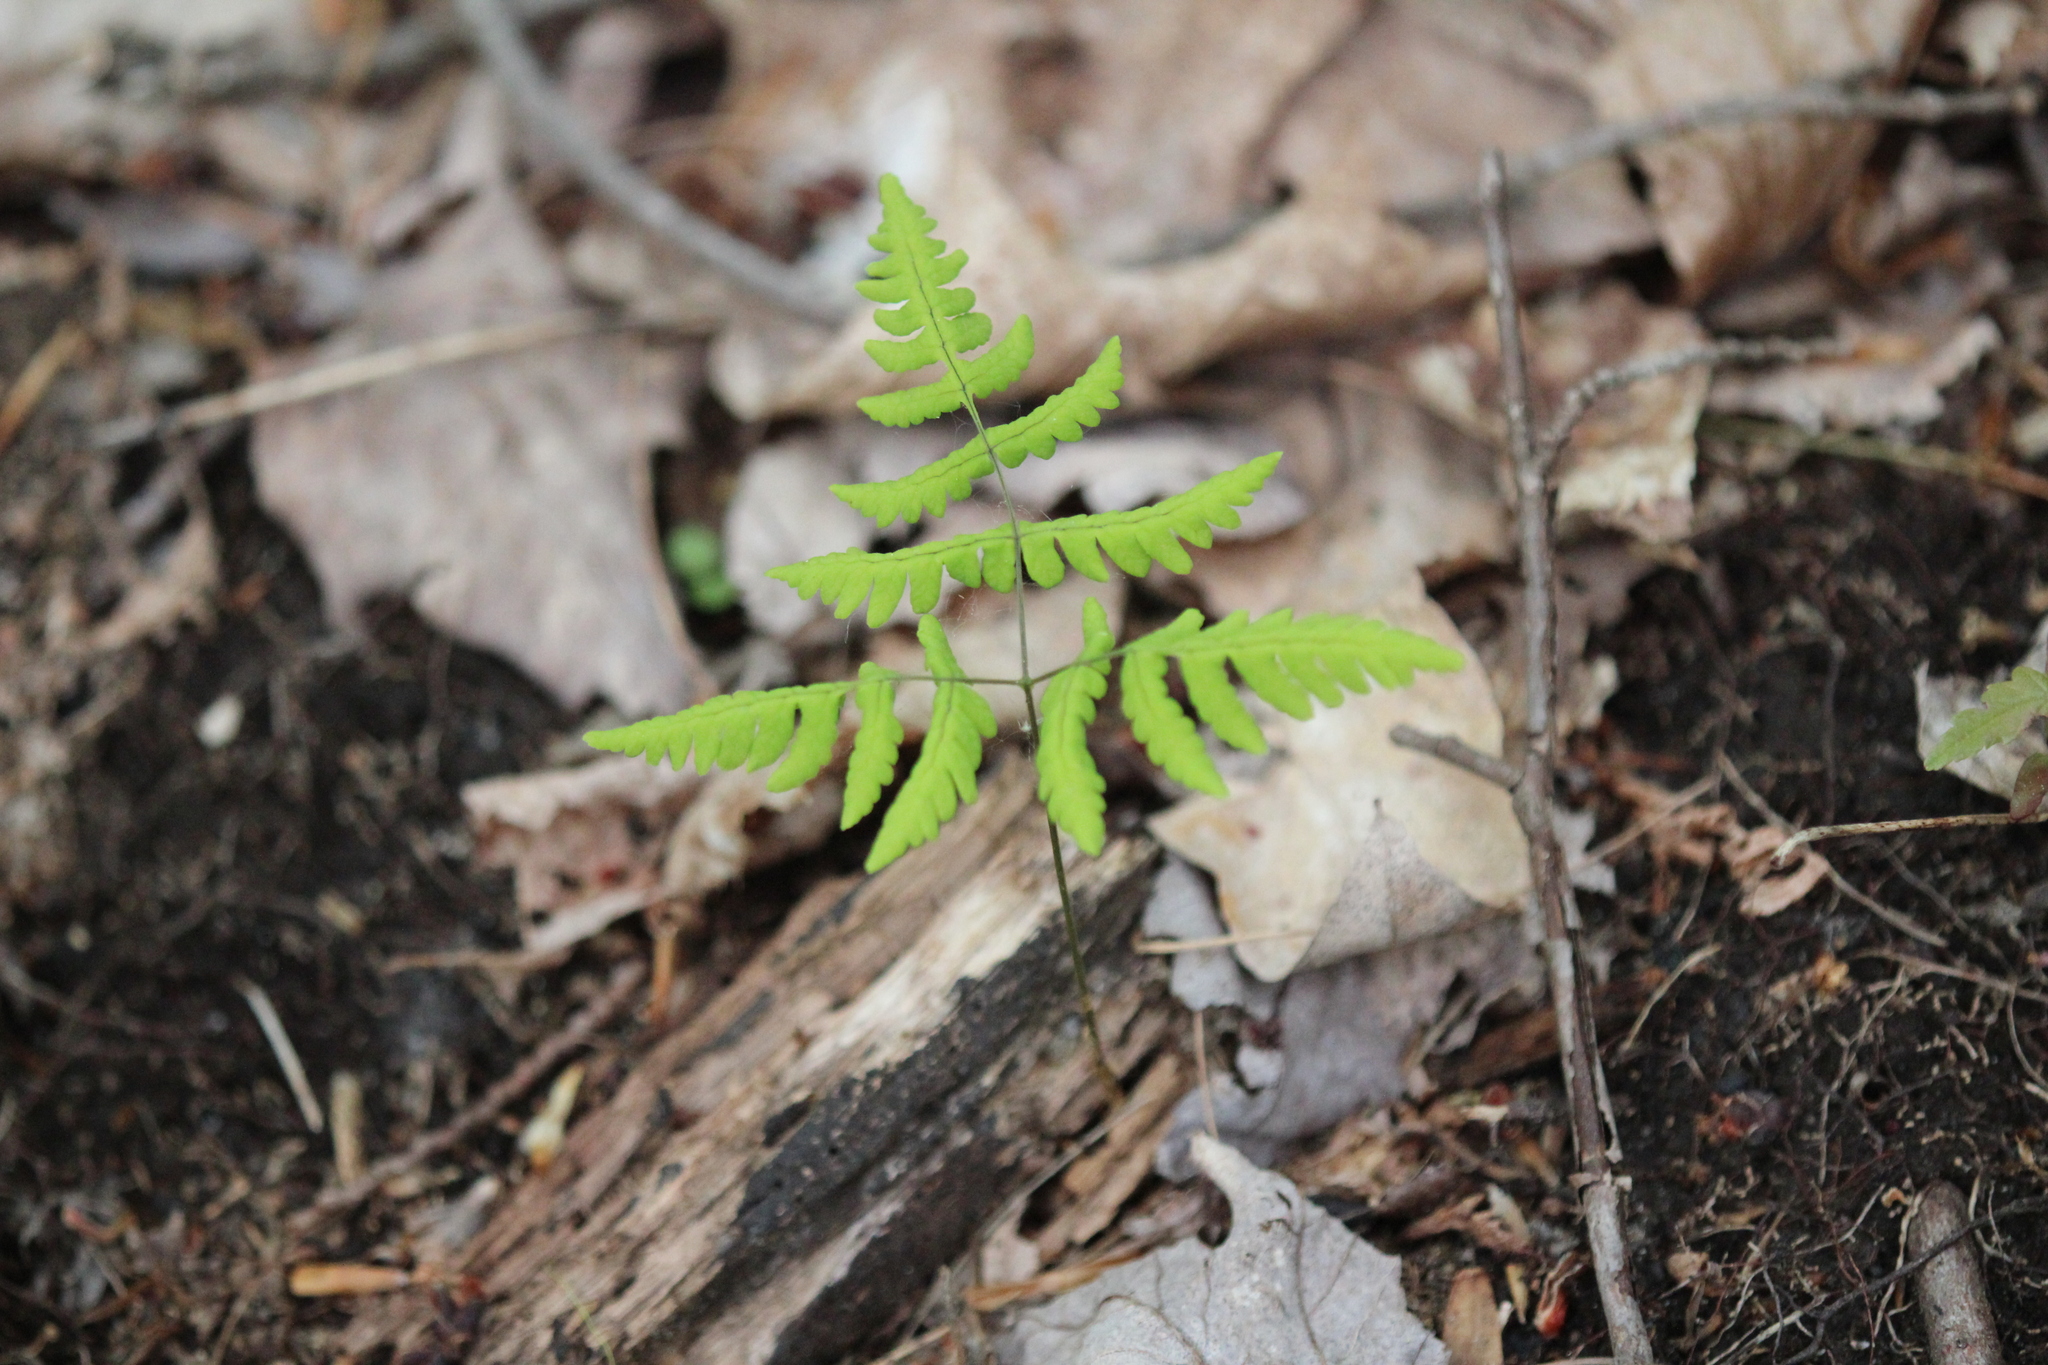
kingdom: Plantae
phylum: Tracheophyta
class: Polypodiopsida
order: Polypodiales
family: Cystopteridaceae
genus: Gymnocarpium
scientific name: Gymnocarpium dryopteris
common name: Oak fern
